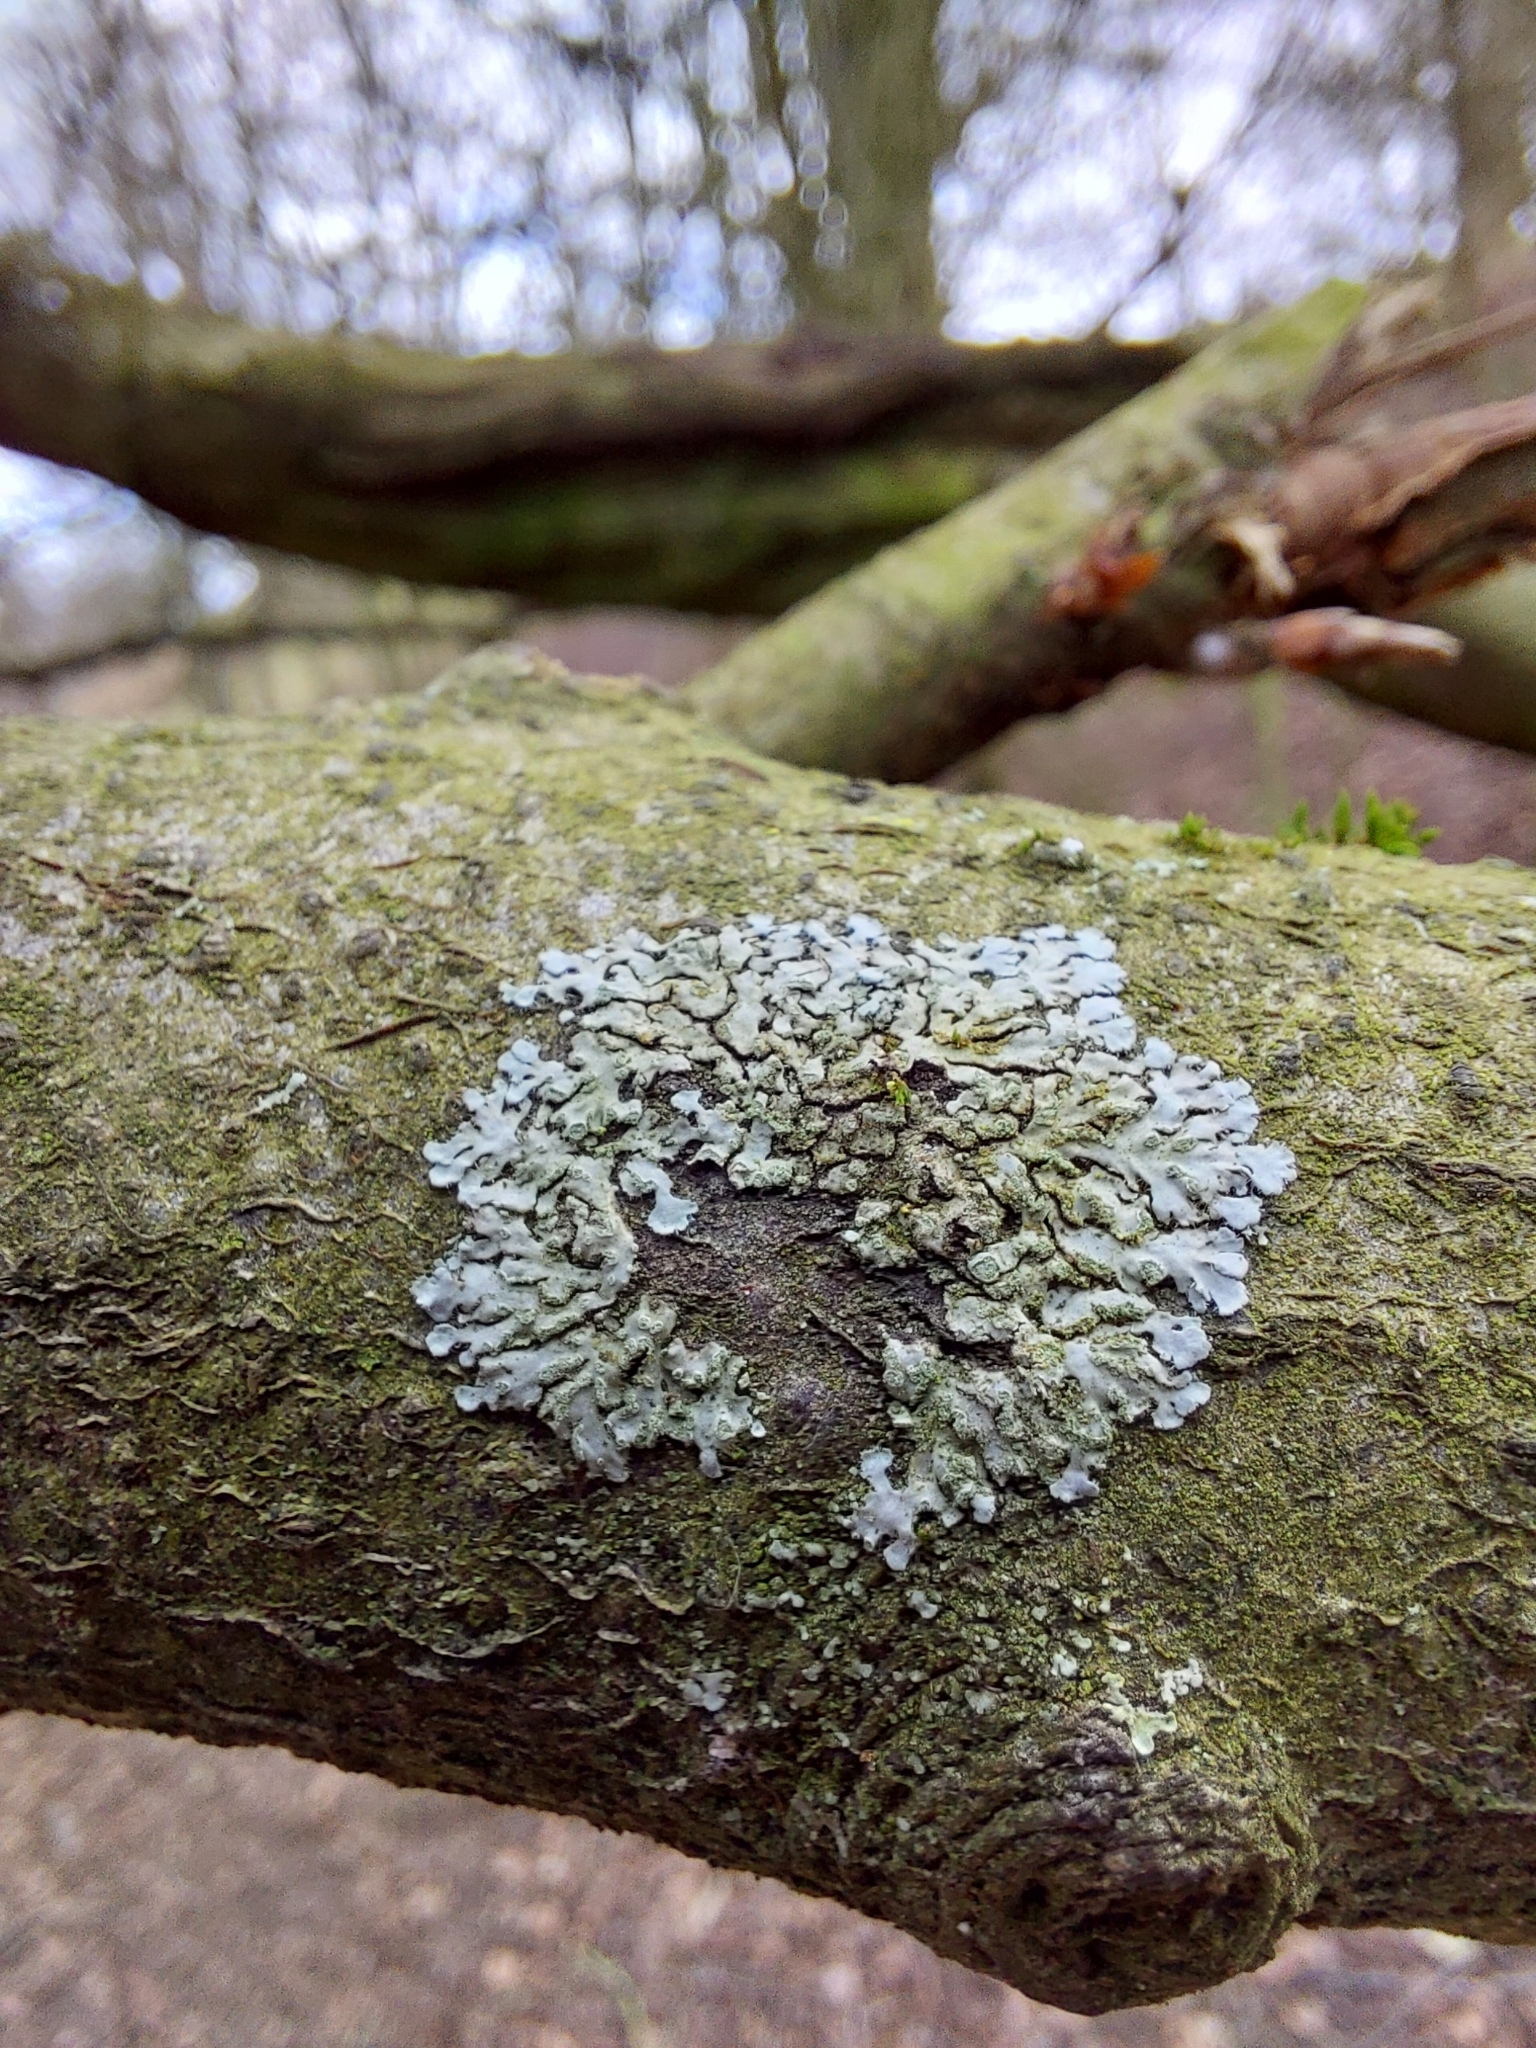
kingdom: Fungi
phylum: Ascomycota
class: Lecanoromycetes
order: Caliciales
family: Physciaceae
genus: Phaeophyscia
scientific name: Phaeophyscia orbicularis
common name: Mealy shadow lichen
